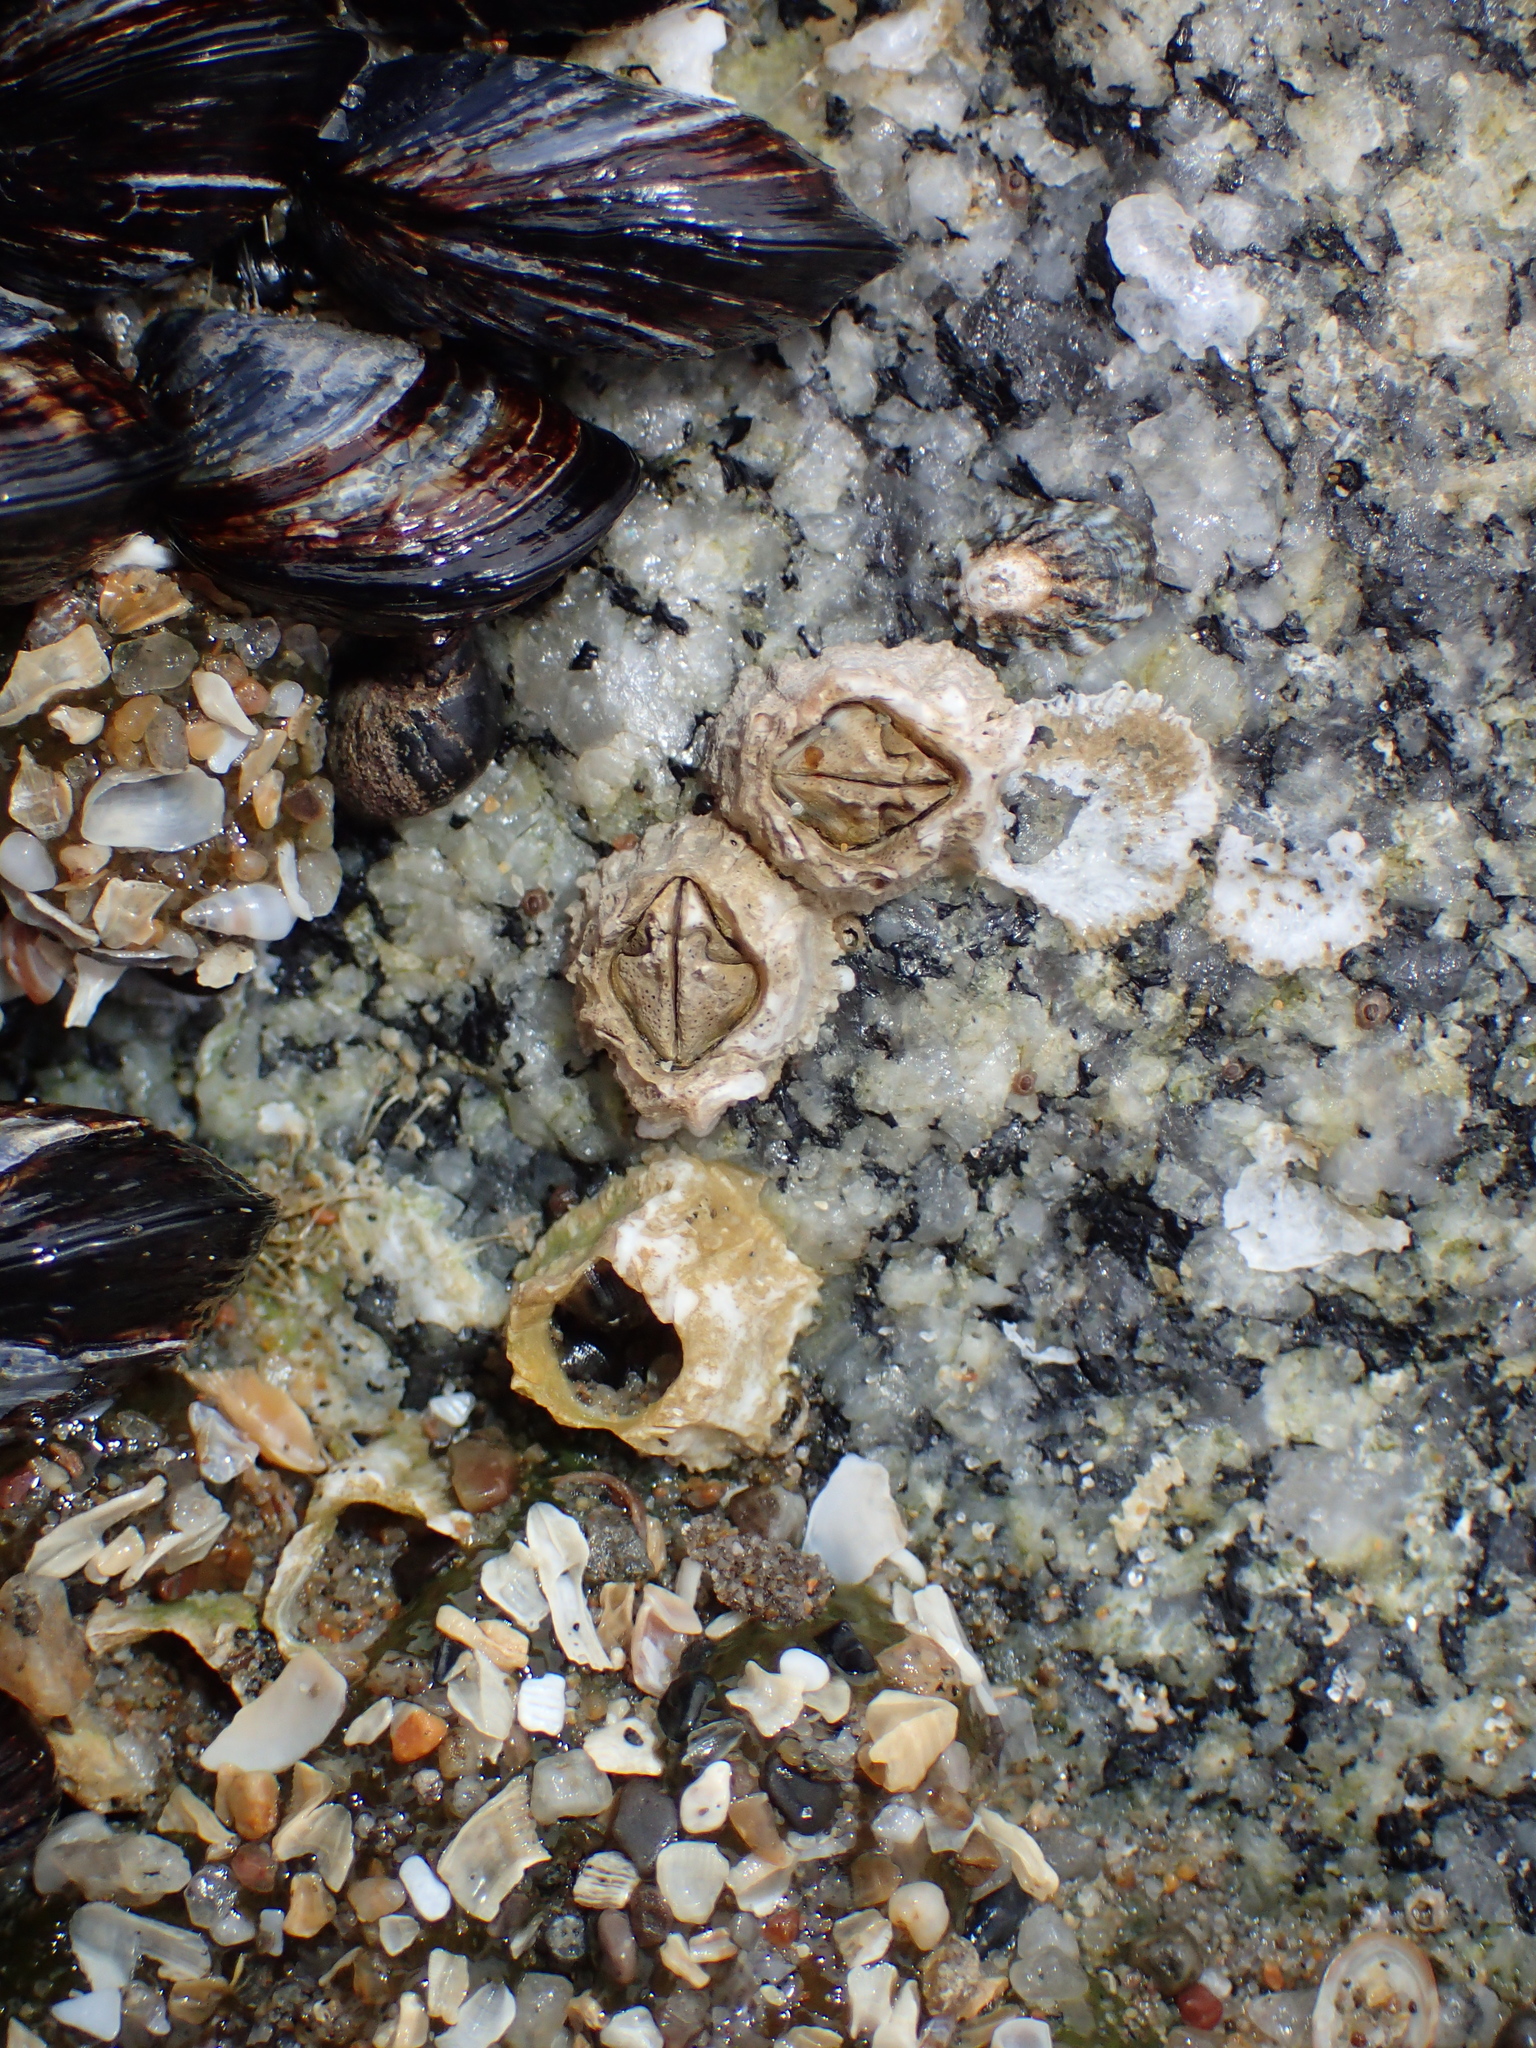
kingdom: Animalia
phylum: Arthropoda
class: Maxillopoda
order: Sessilia
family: Balanidae
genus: Balanus
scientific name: Balanus glandula
